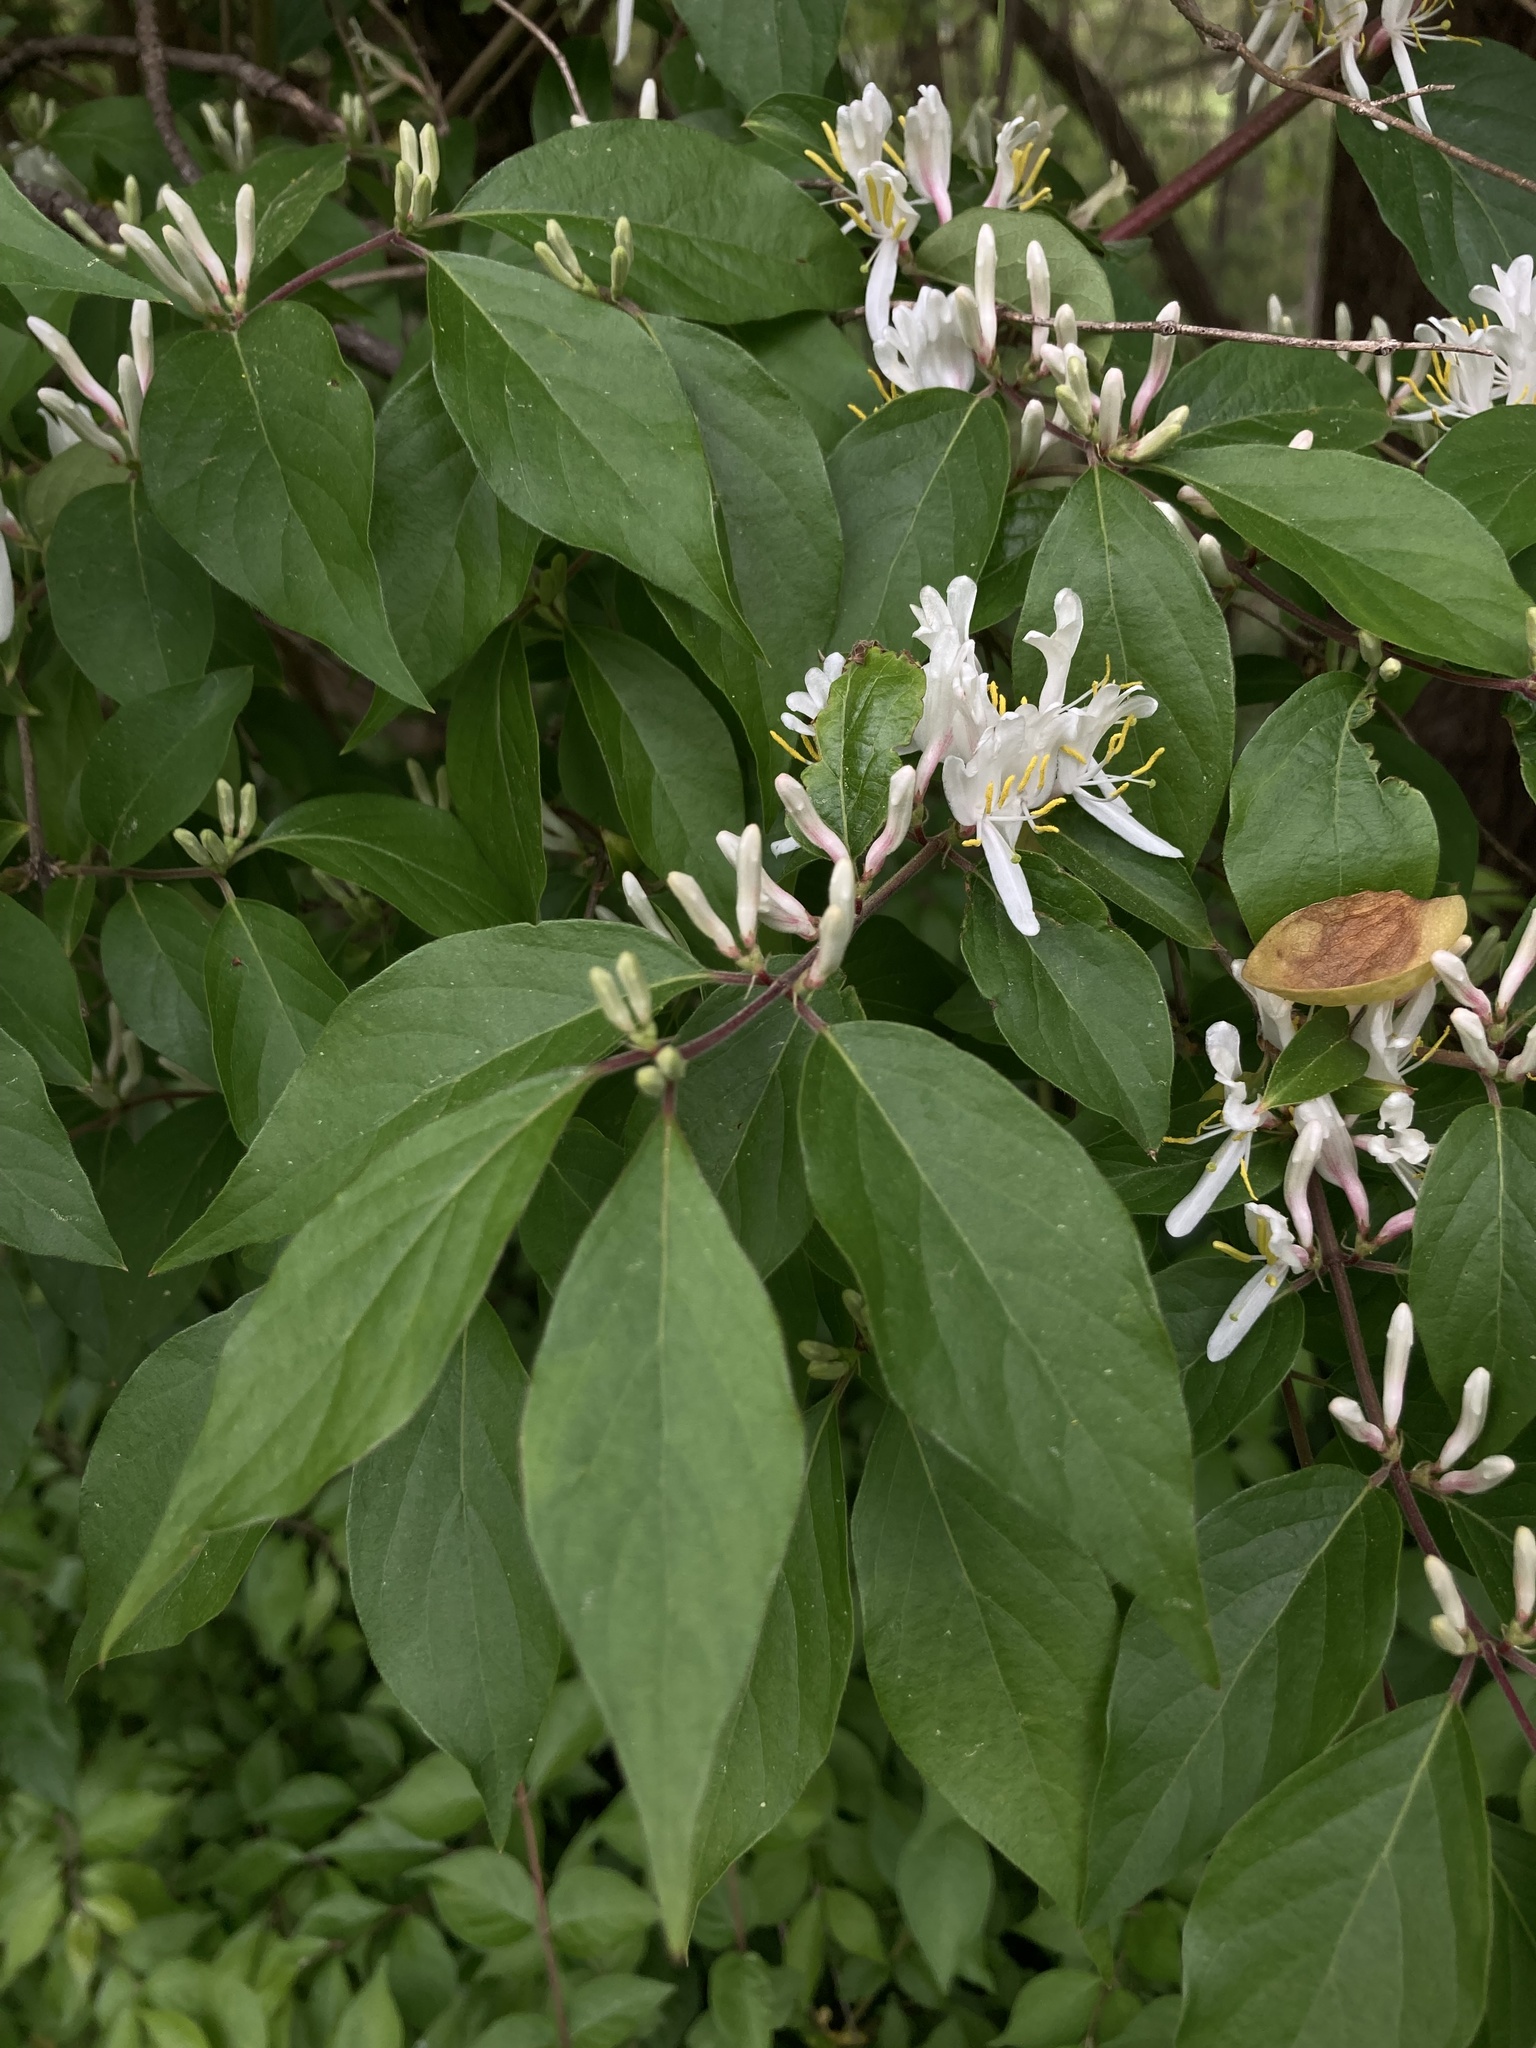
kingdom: Plantae
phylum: Tracheophyta
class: Magnoliopsida
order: Dipsacales
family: Caprifoliaceae
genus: Lonicera
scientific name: Lonicera maackii
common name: Amur honeysuckle
